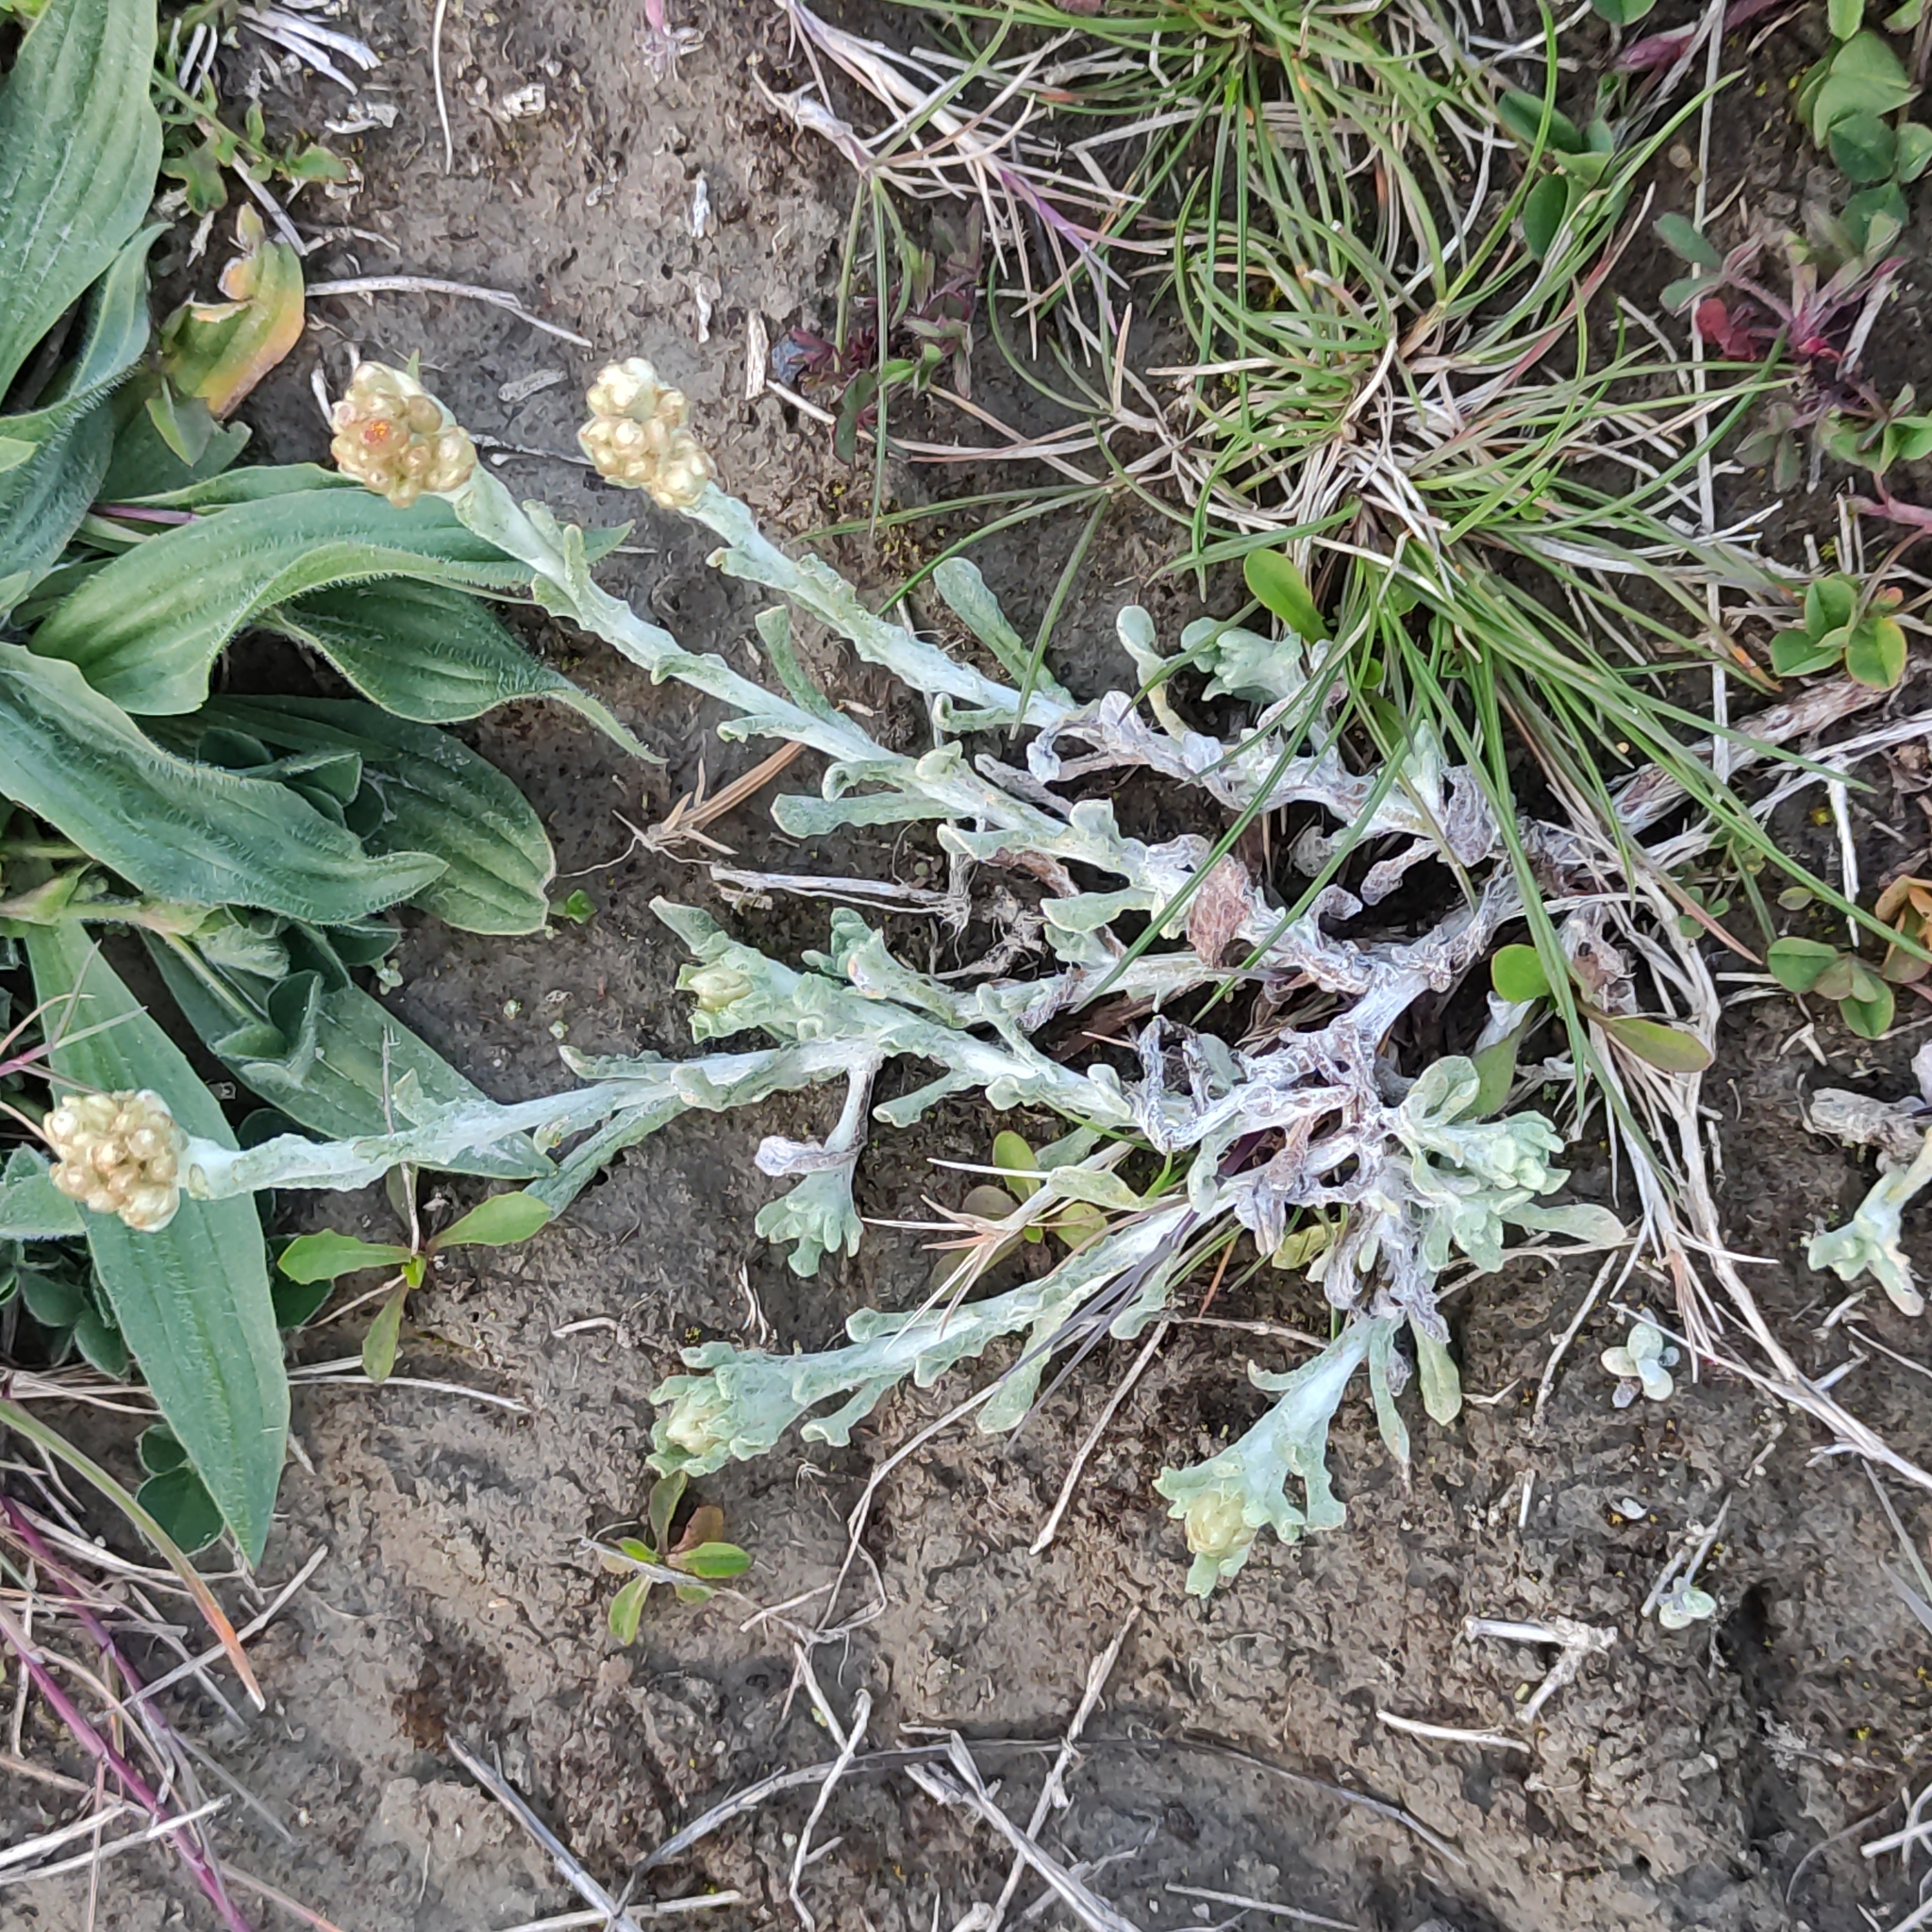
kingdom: Plantae
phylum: Tracheophyta
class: Magnoliopsida
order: Asterales
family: Asteraceae
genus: Helichrysum
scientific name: Helichrysum luteoalbum
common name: Daisy
